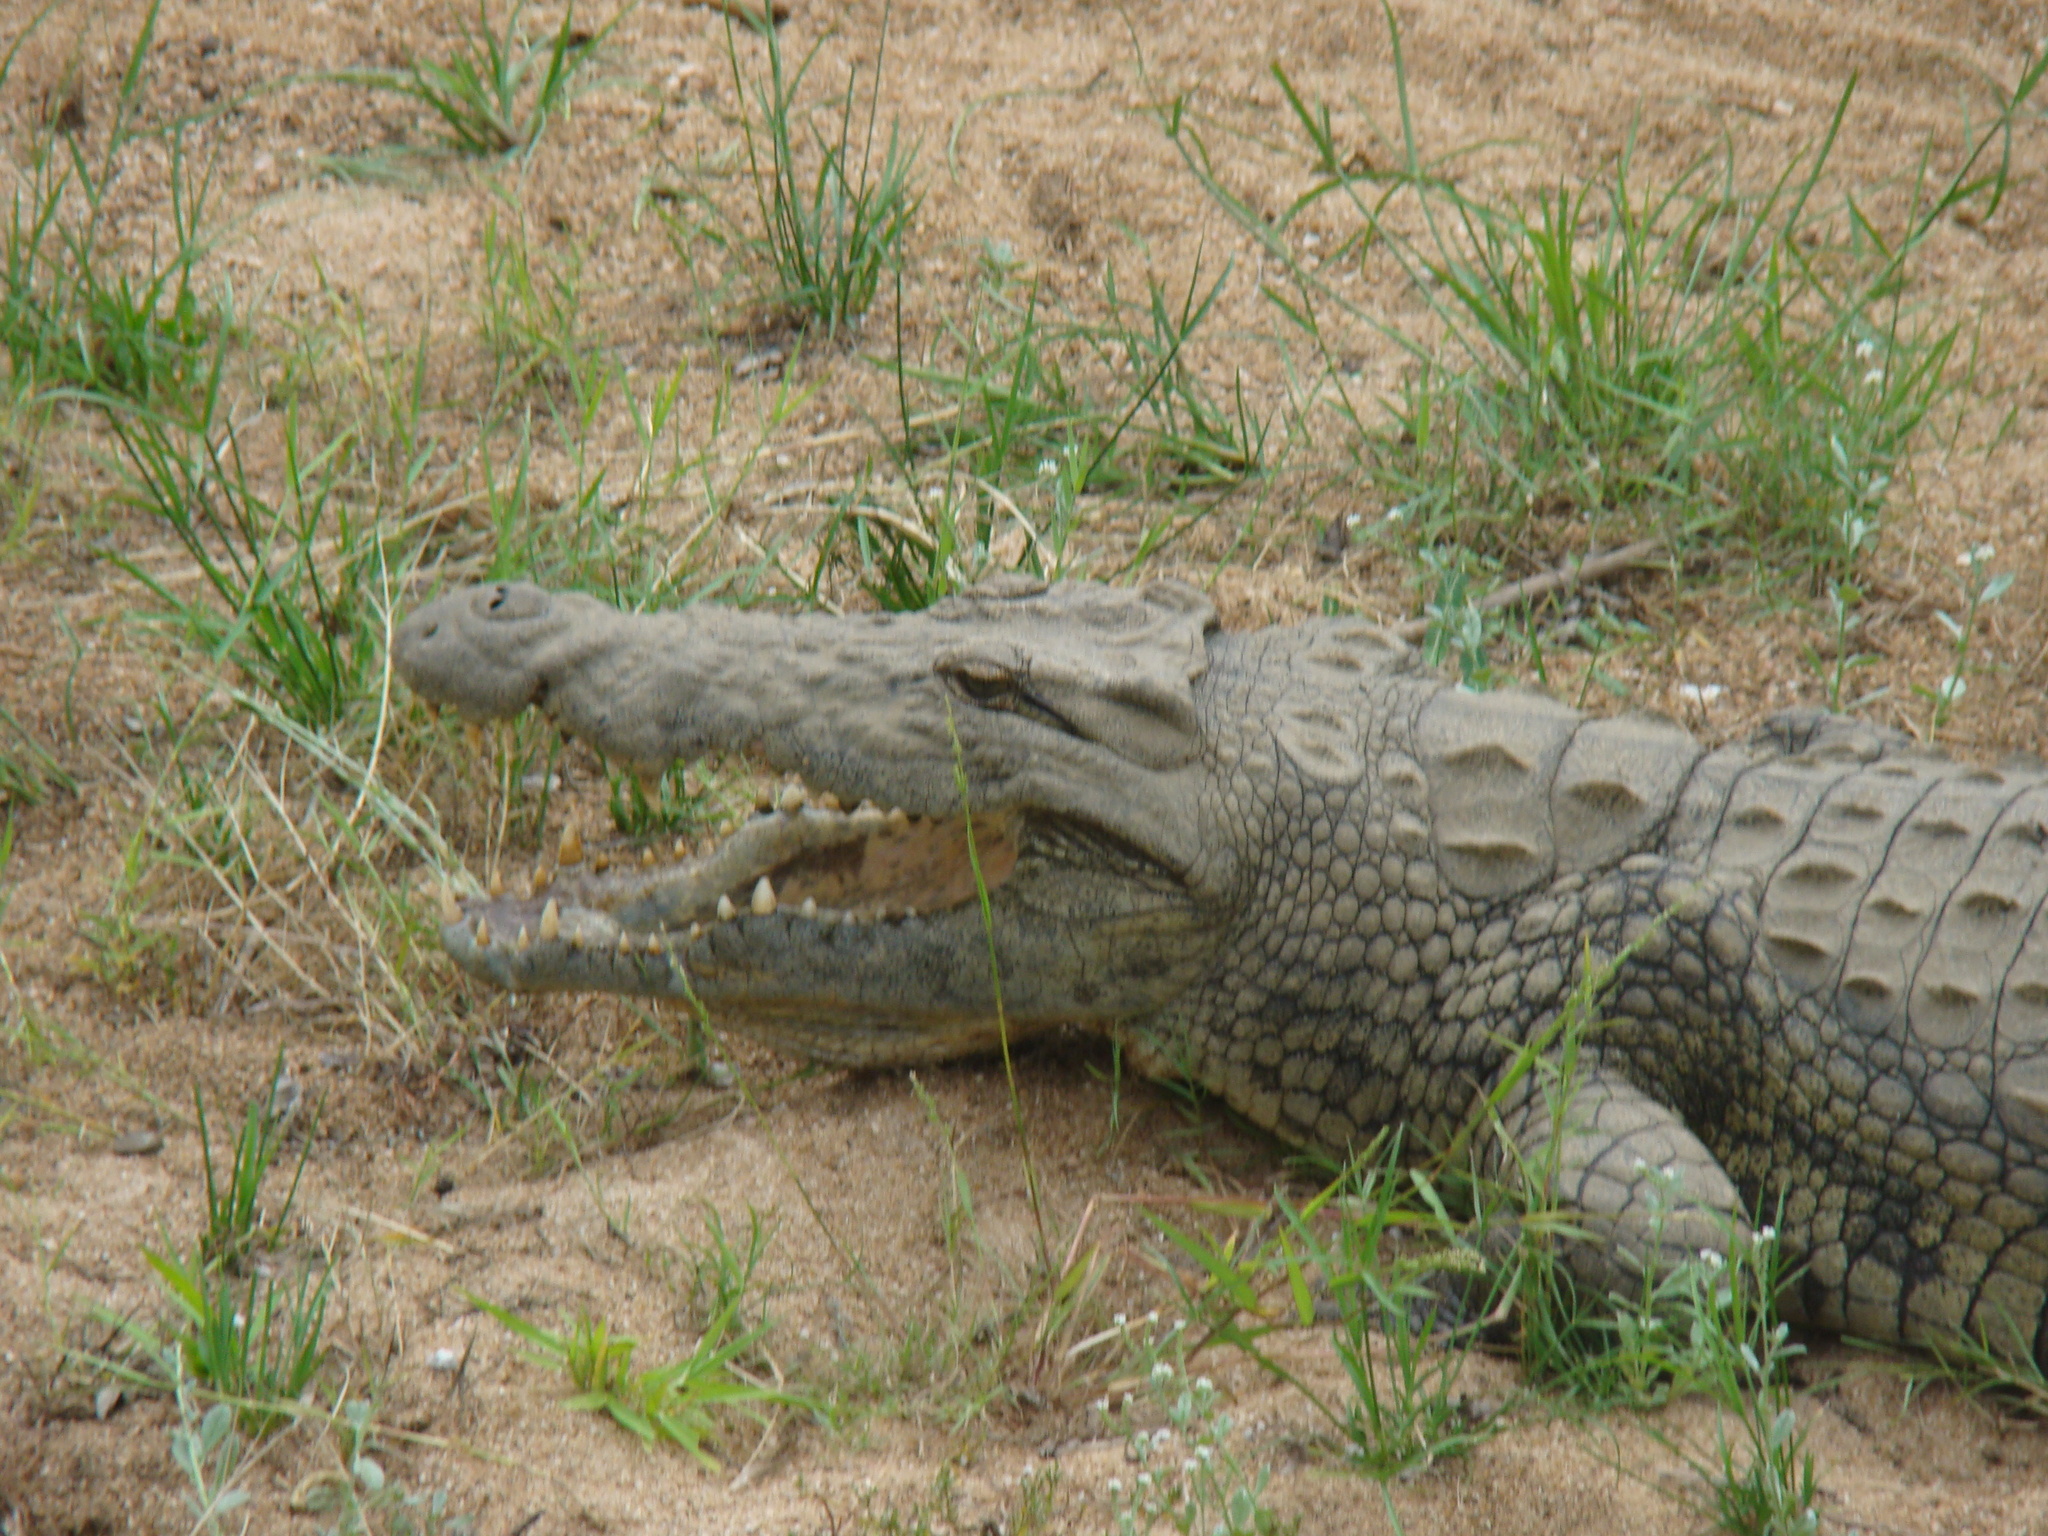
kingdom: Animalia
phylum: Chordata
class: Crocodylia
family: Crocodylidae
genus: Crocodylus
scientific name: Crocodylus niloticus
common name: Nile crocodile
